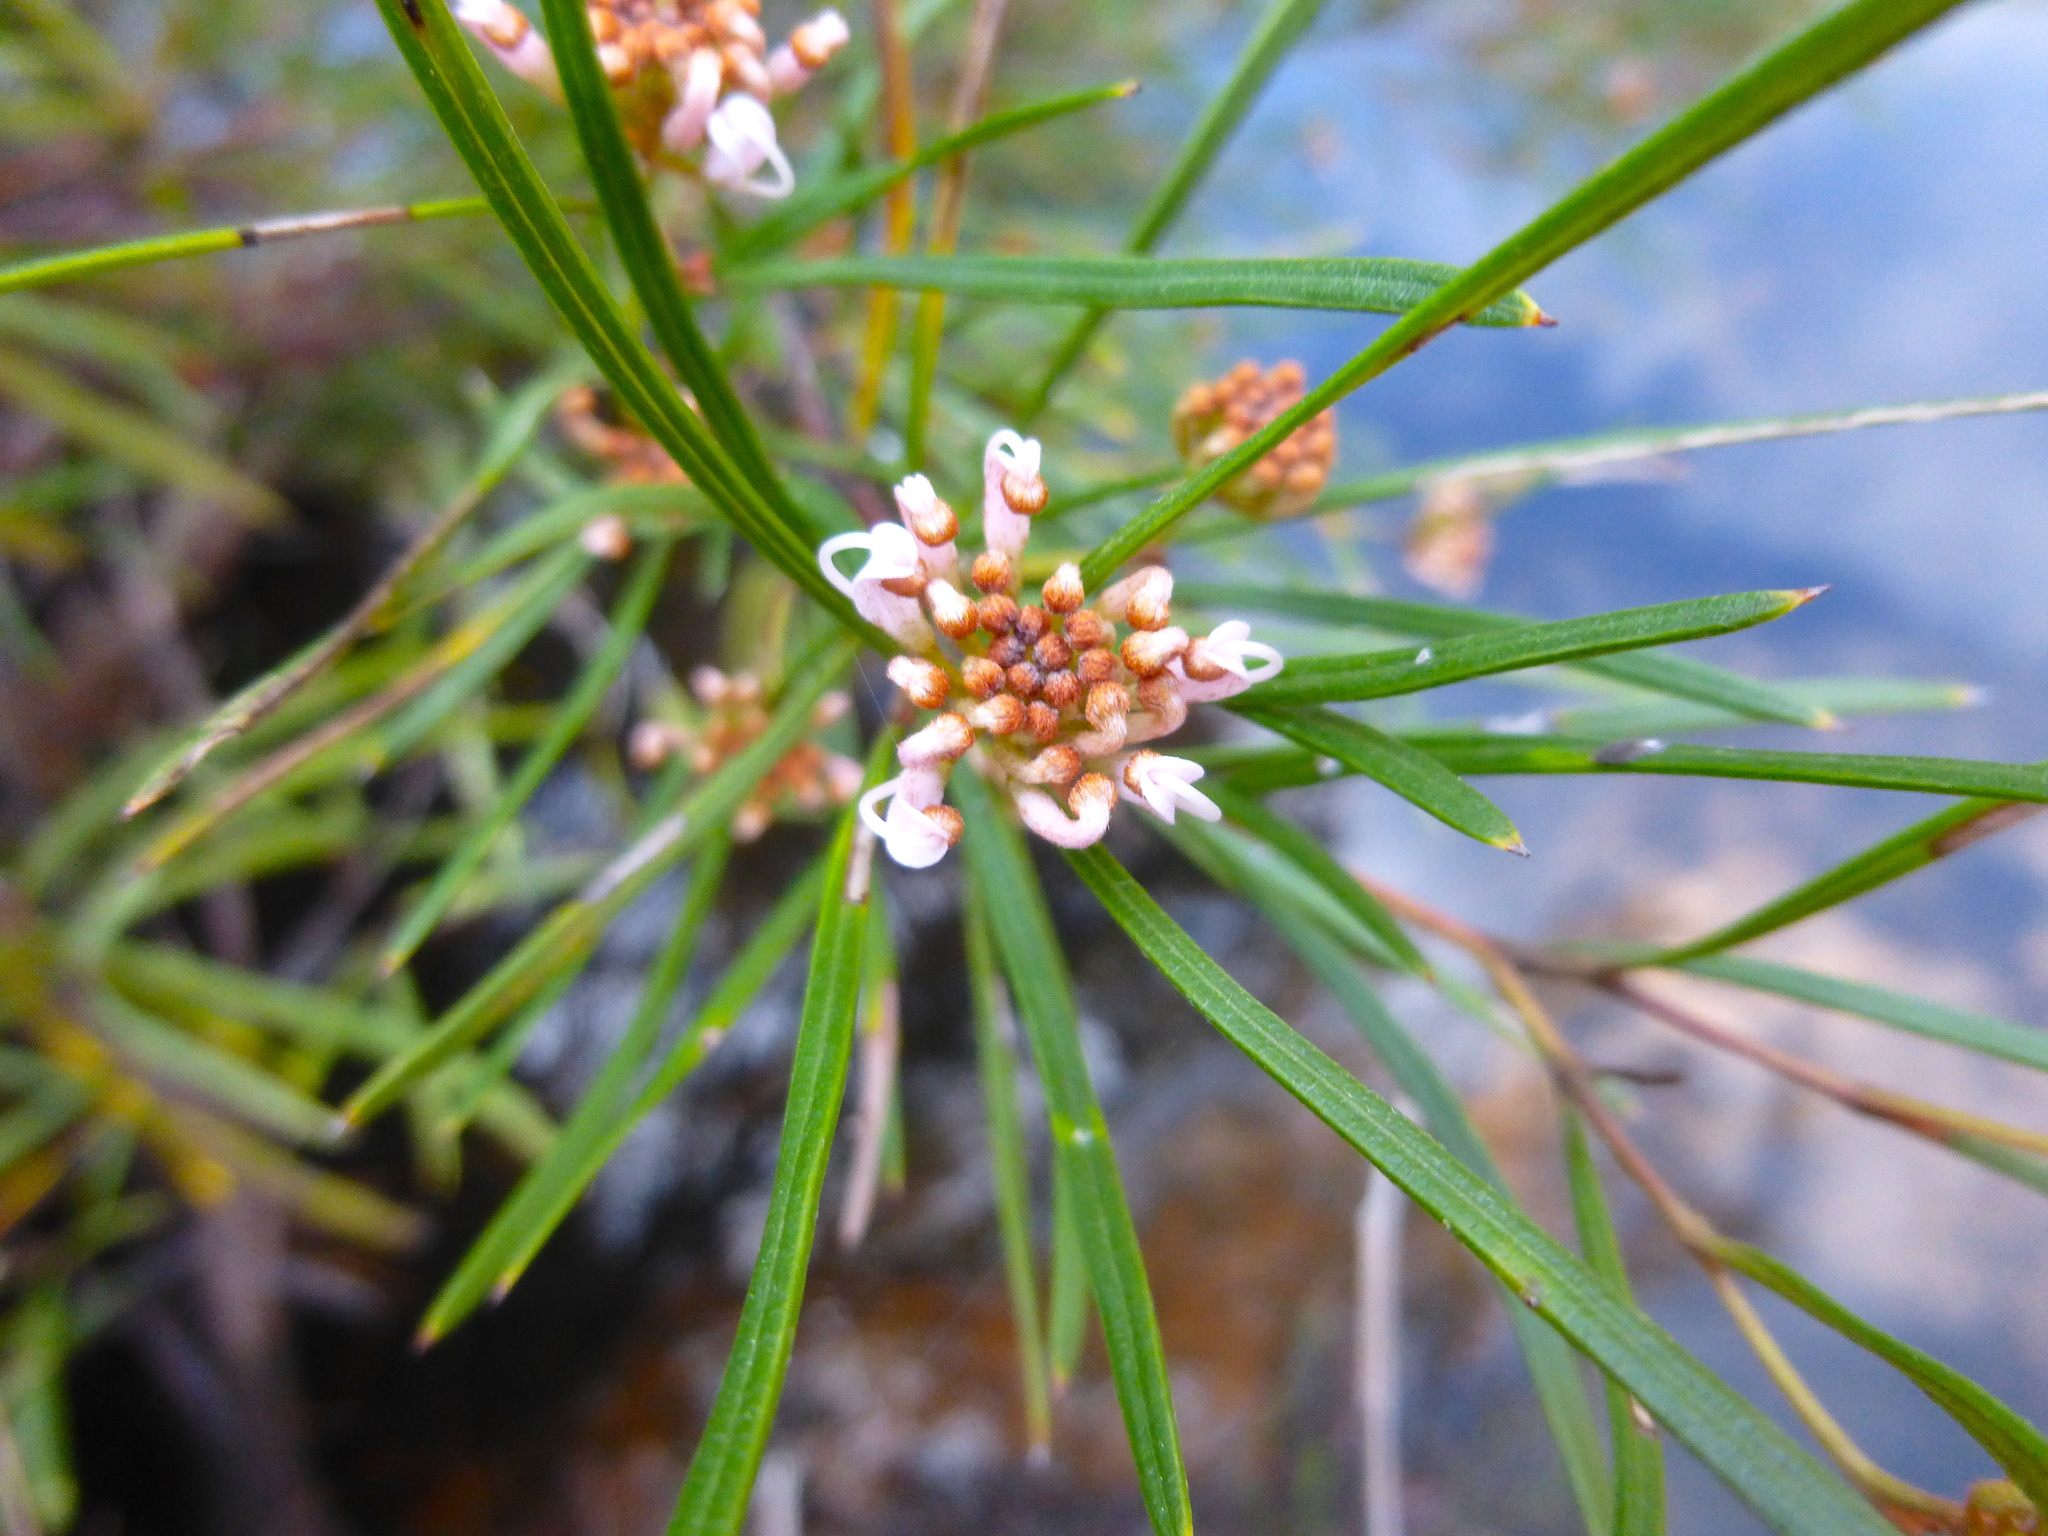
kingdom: Plantae
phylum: Tracheophyta
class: Magnoliopsida
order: Proteales
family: Proteaceae
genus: Grevillea
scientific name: Grevillea neurophylla
